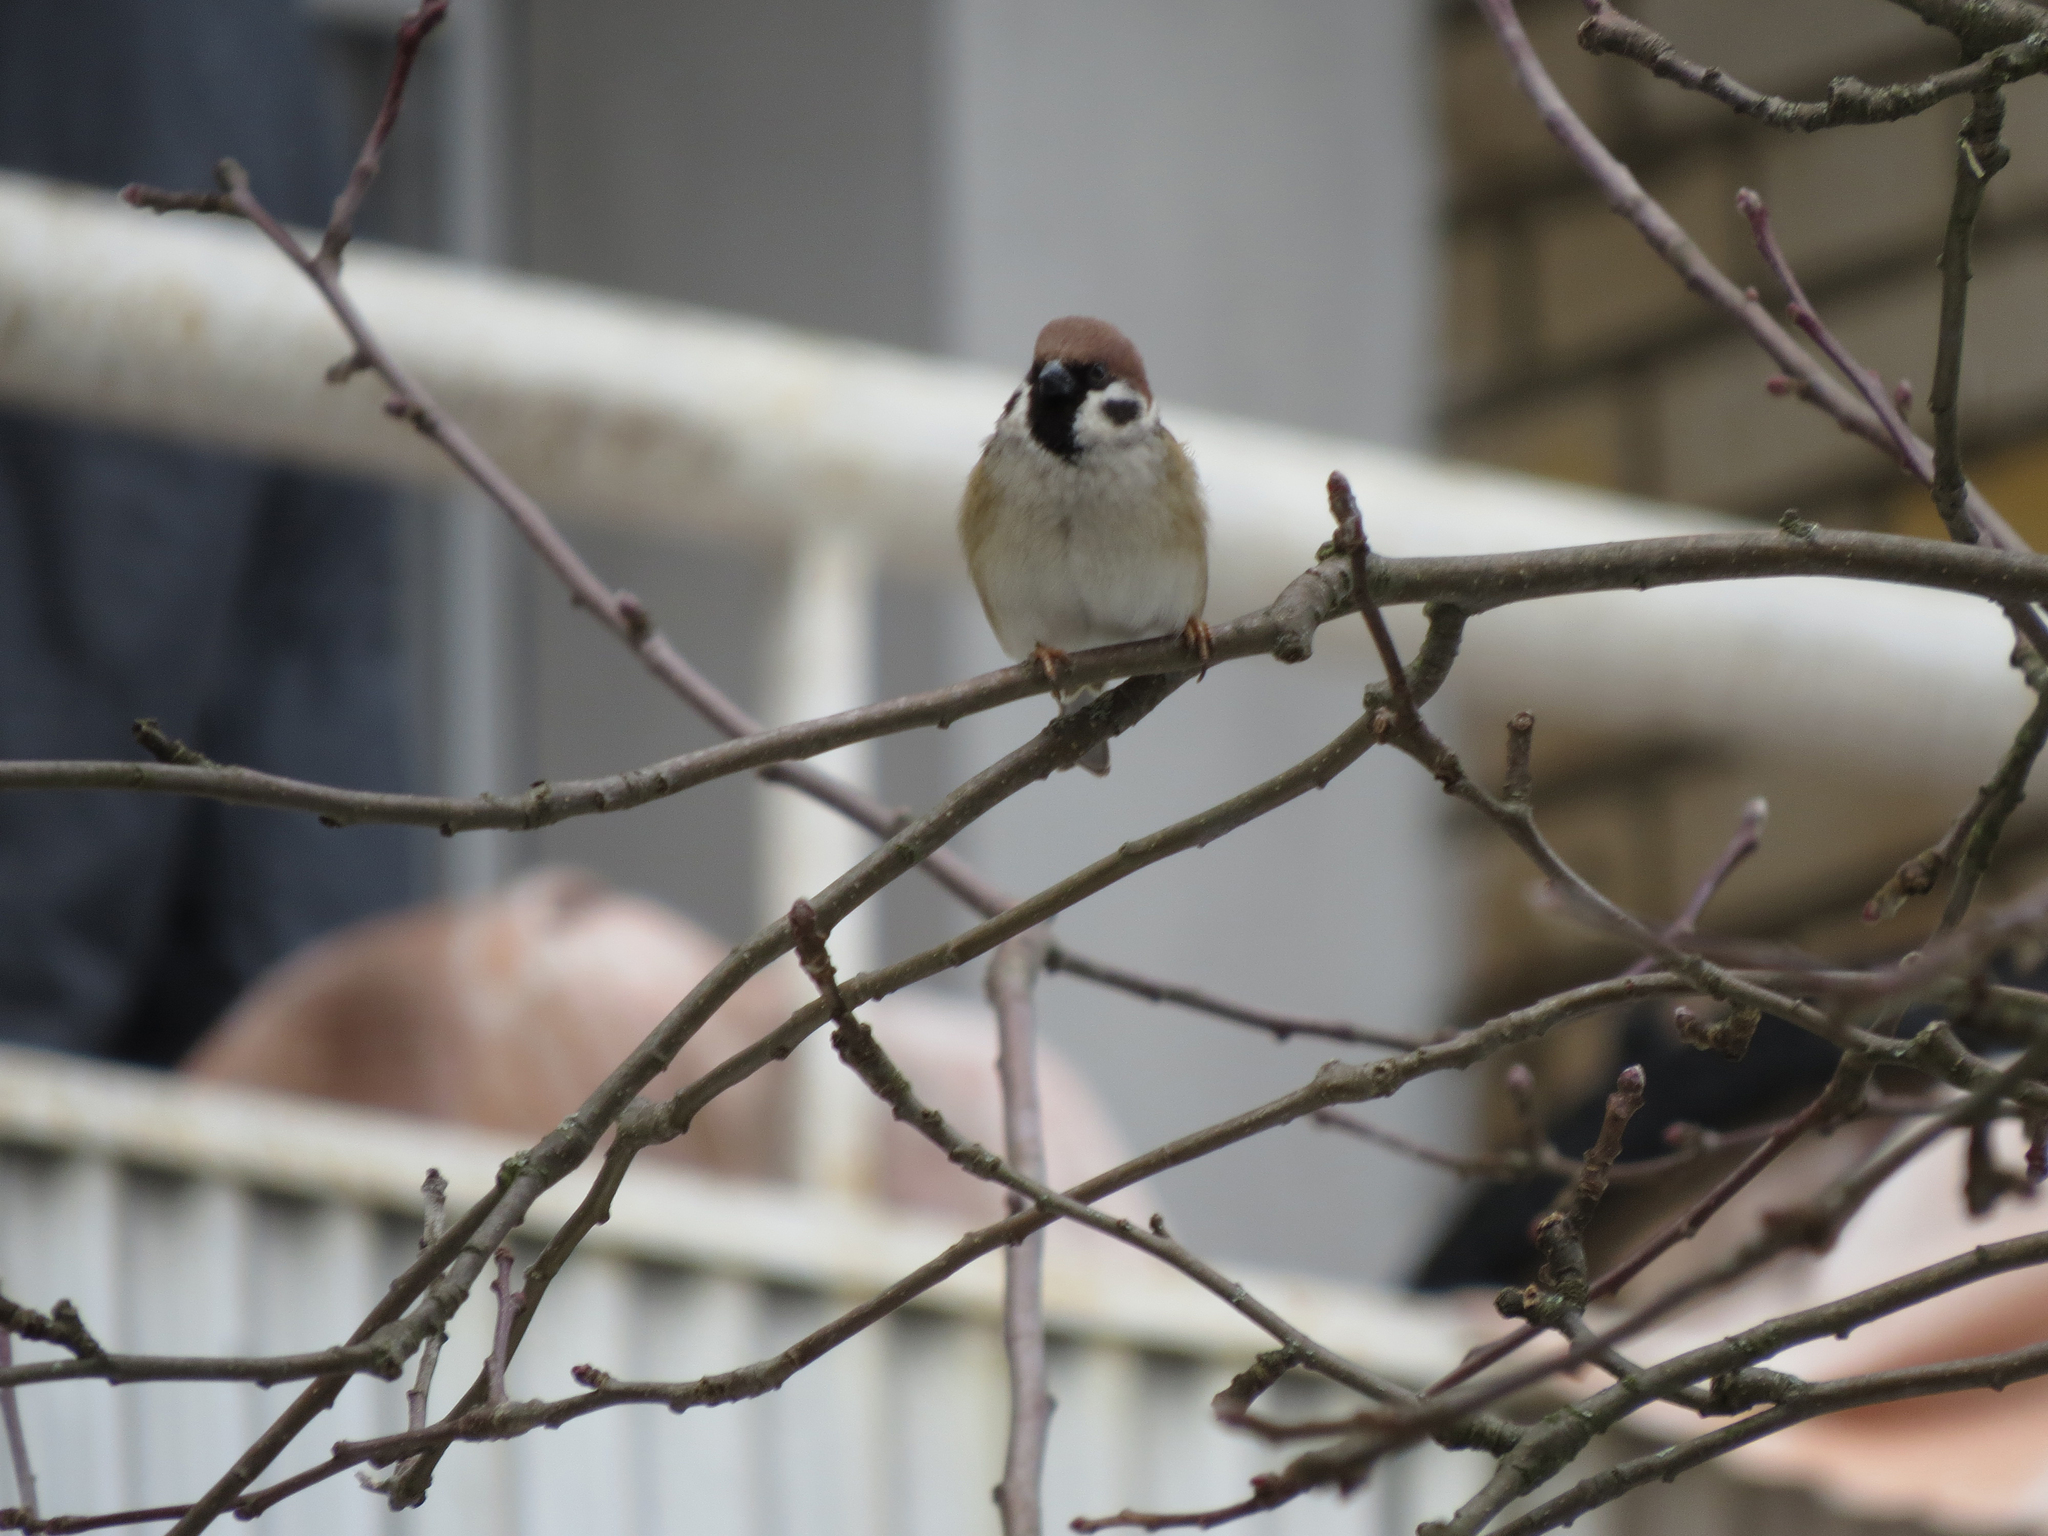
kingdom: Animalia
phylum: Chordata
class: Aves
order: Passeriformes
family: Passeridae
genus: Passer
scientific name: Passer montanus
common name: Eurasian tree sparrow
